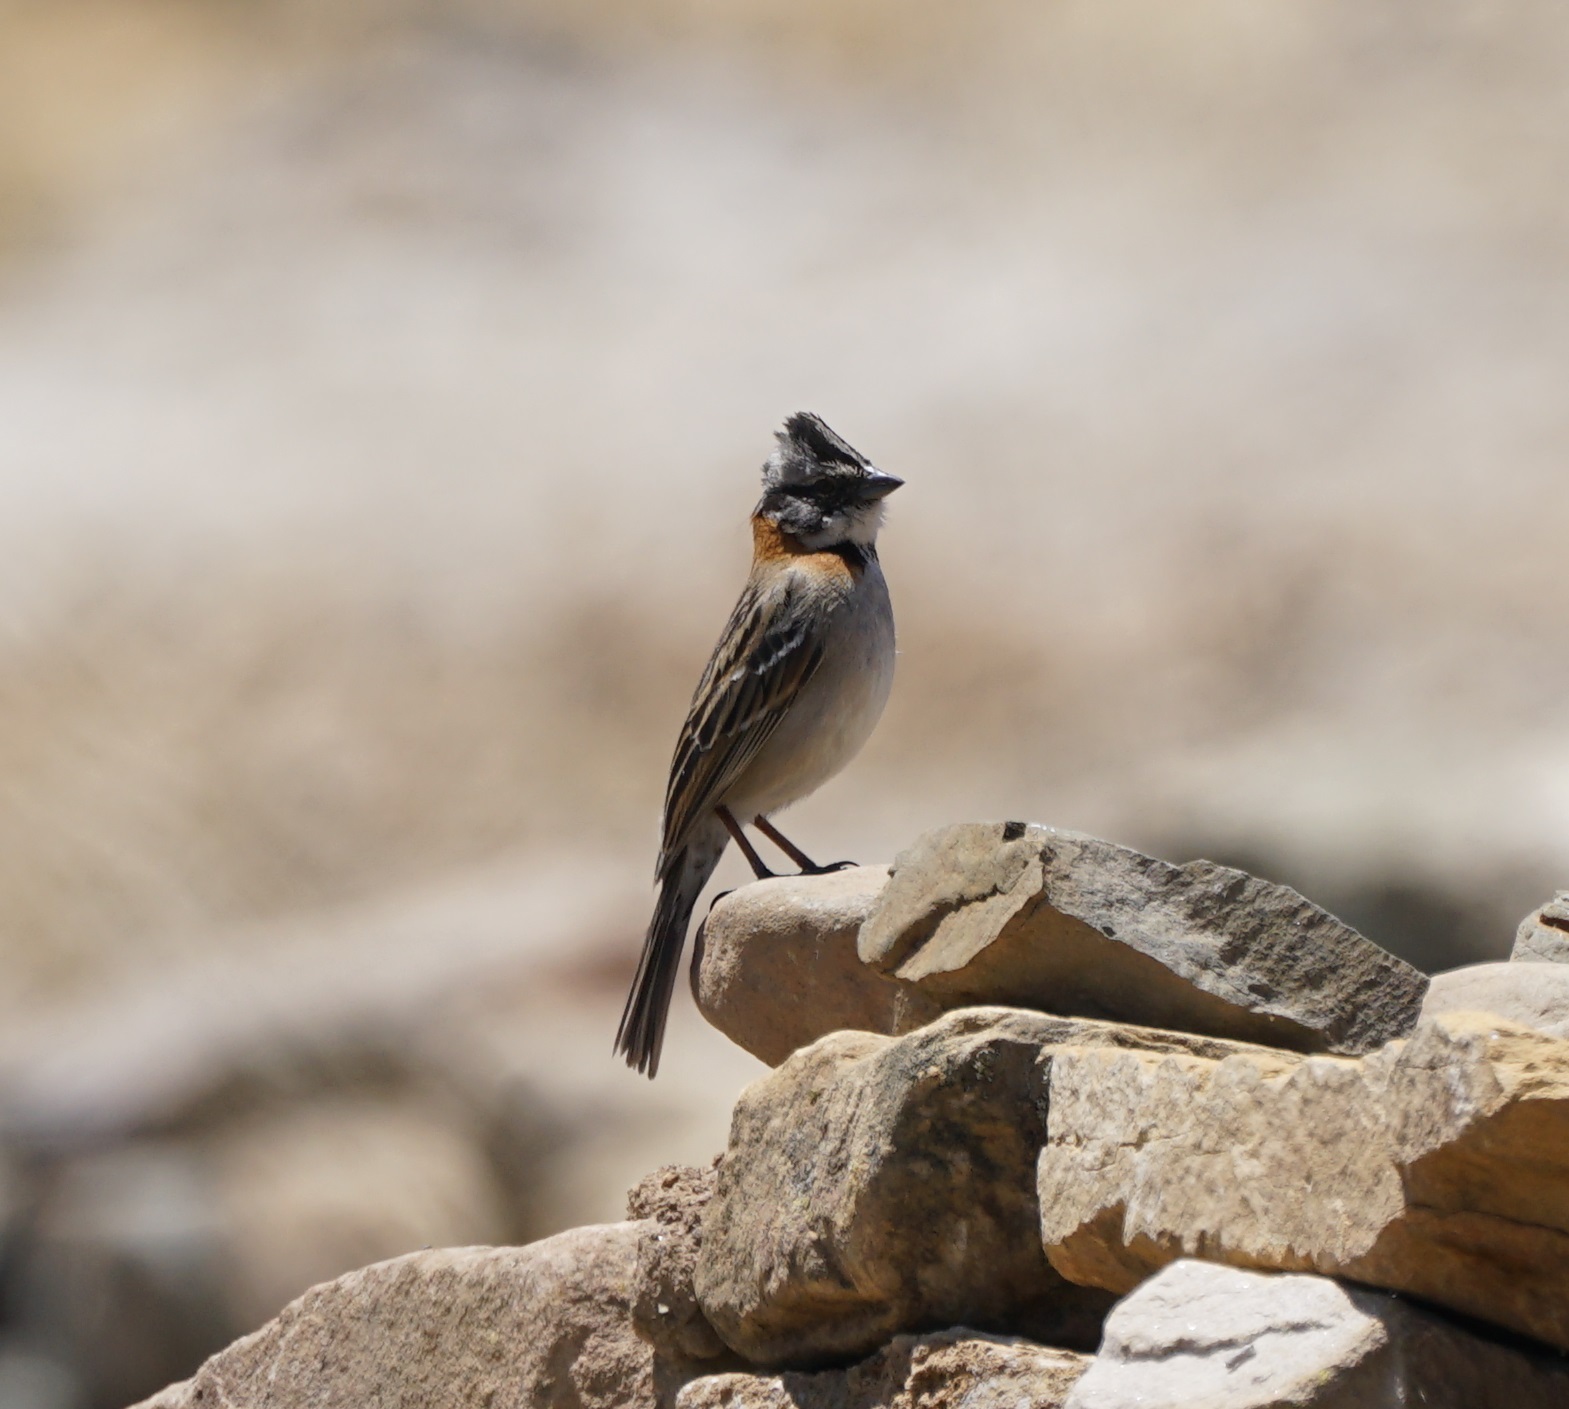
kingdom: Animalia
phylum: Chordata
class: Aves
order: Passeriformes
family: Passerellidae
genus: Zonotrichia
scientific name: Zonotrichia capensis
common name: Rufous-collared sparrow
